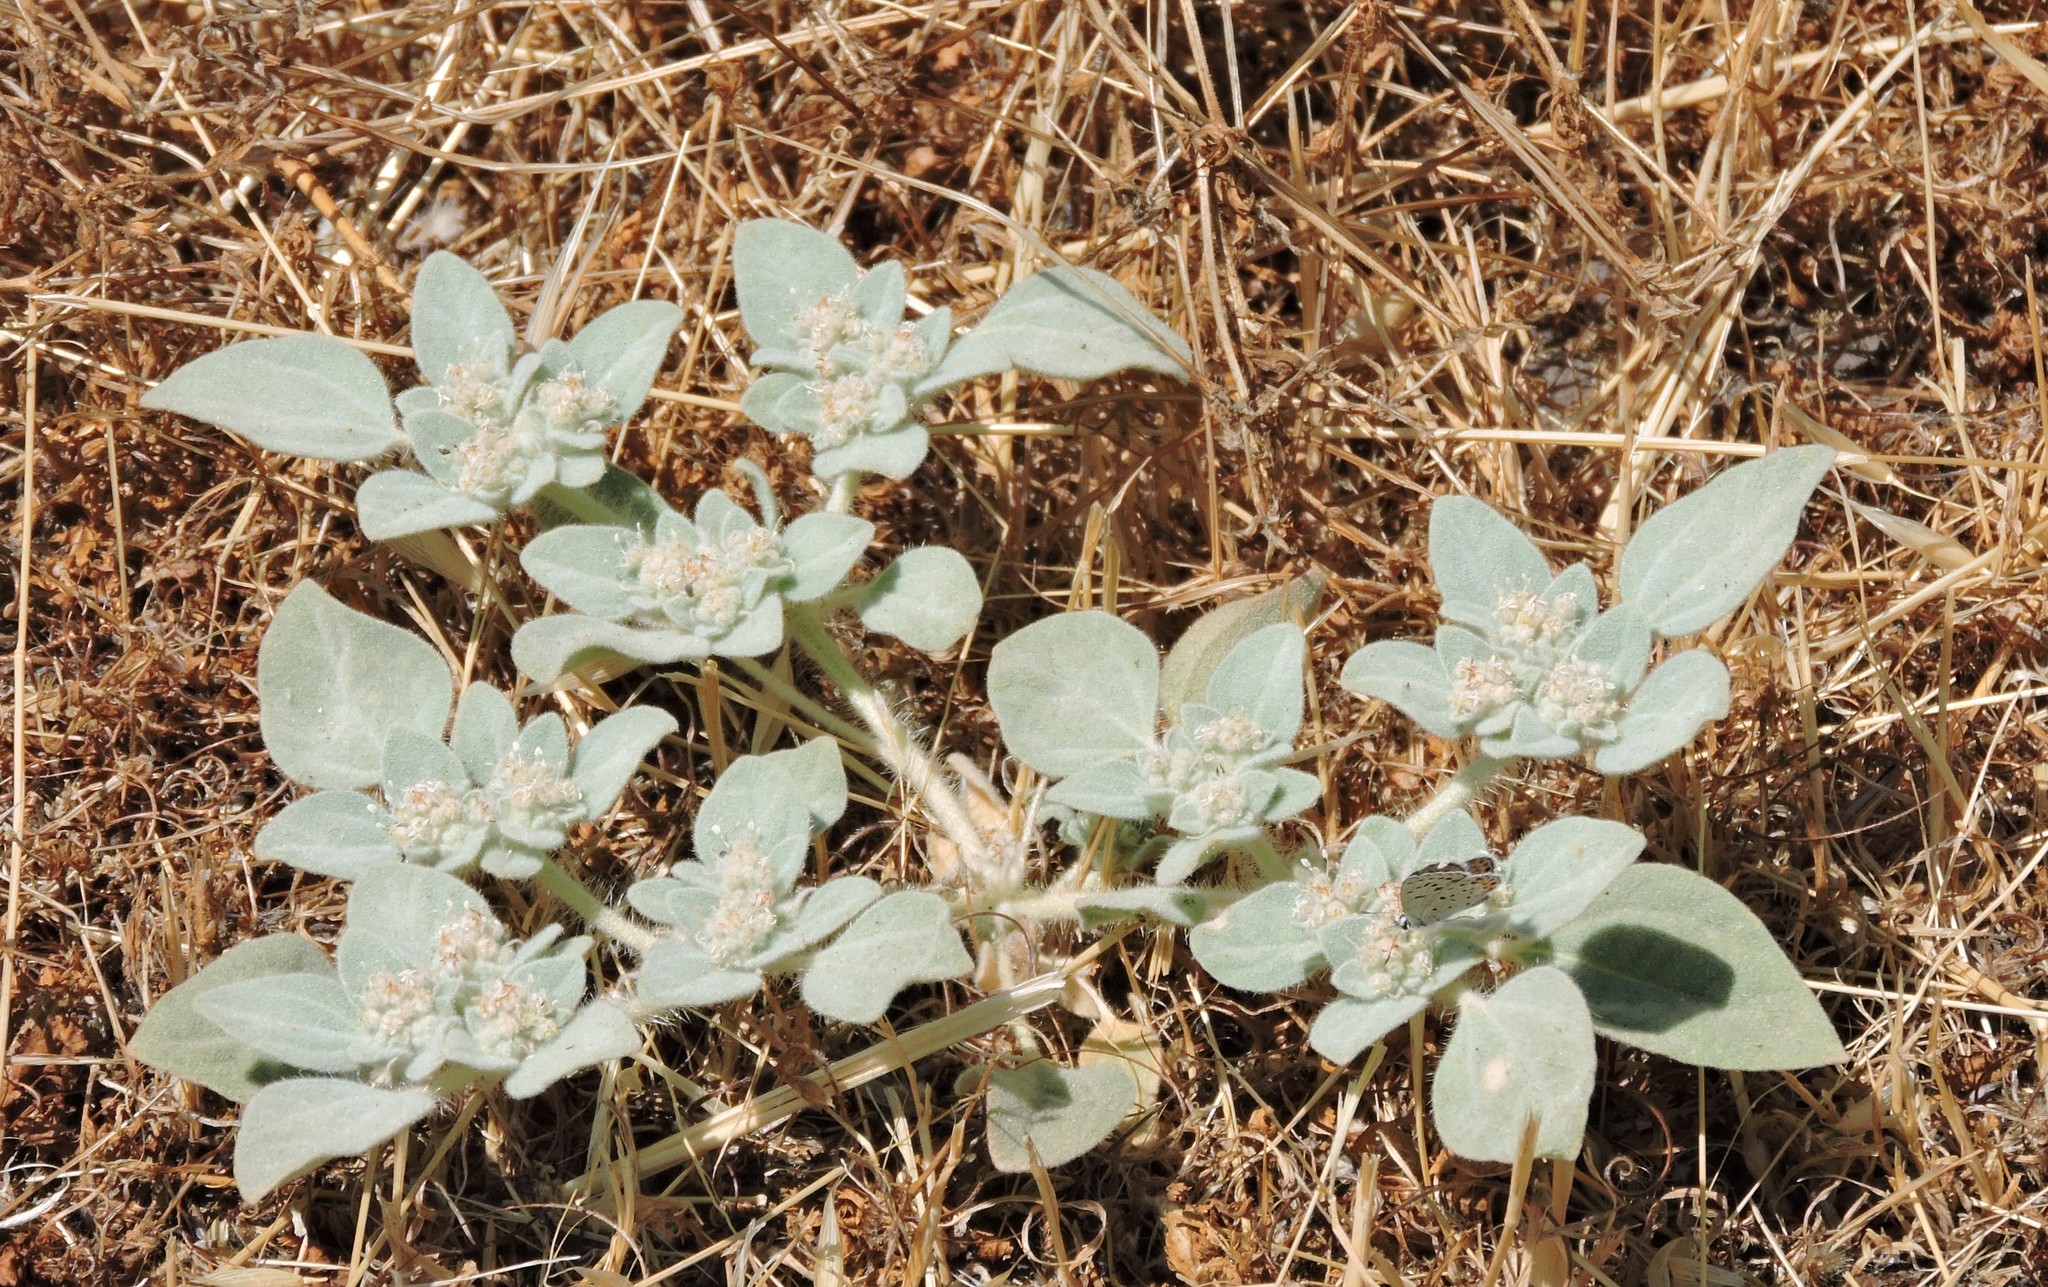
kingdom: Plantae
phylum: Tracheophyta
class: Magnoliopsida
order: Malpighiales
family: Euphorbiaceae
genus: Croton
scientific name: Croton setiger
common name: Dove weed
